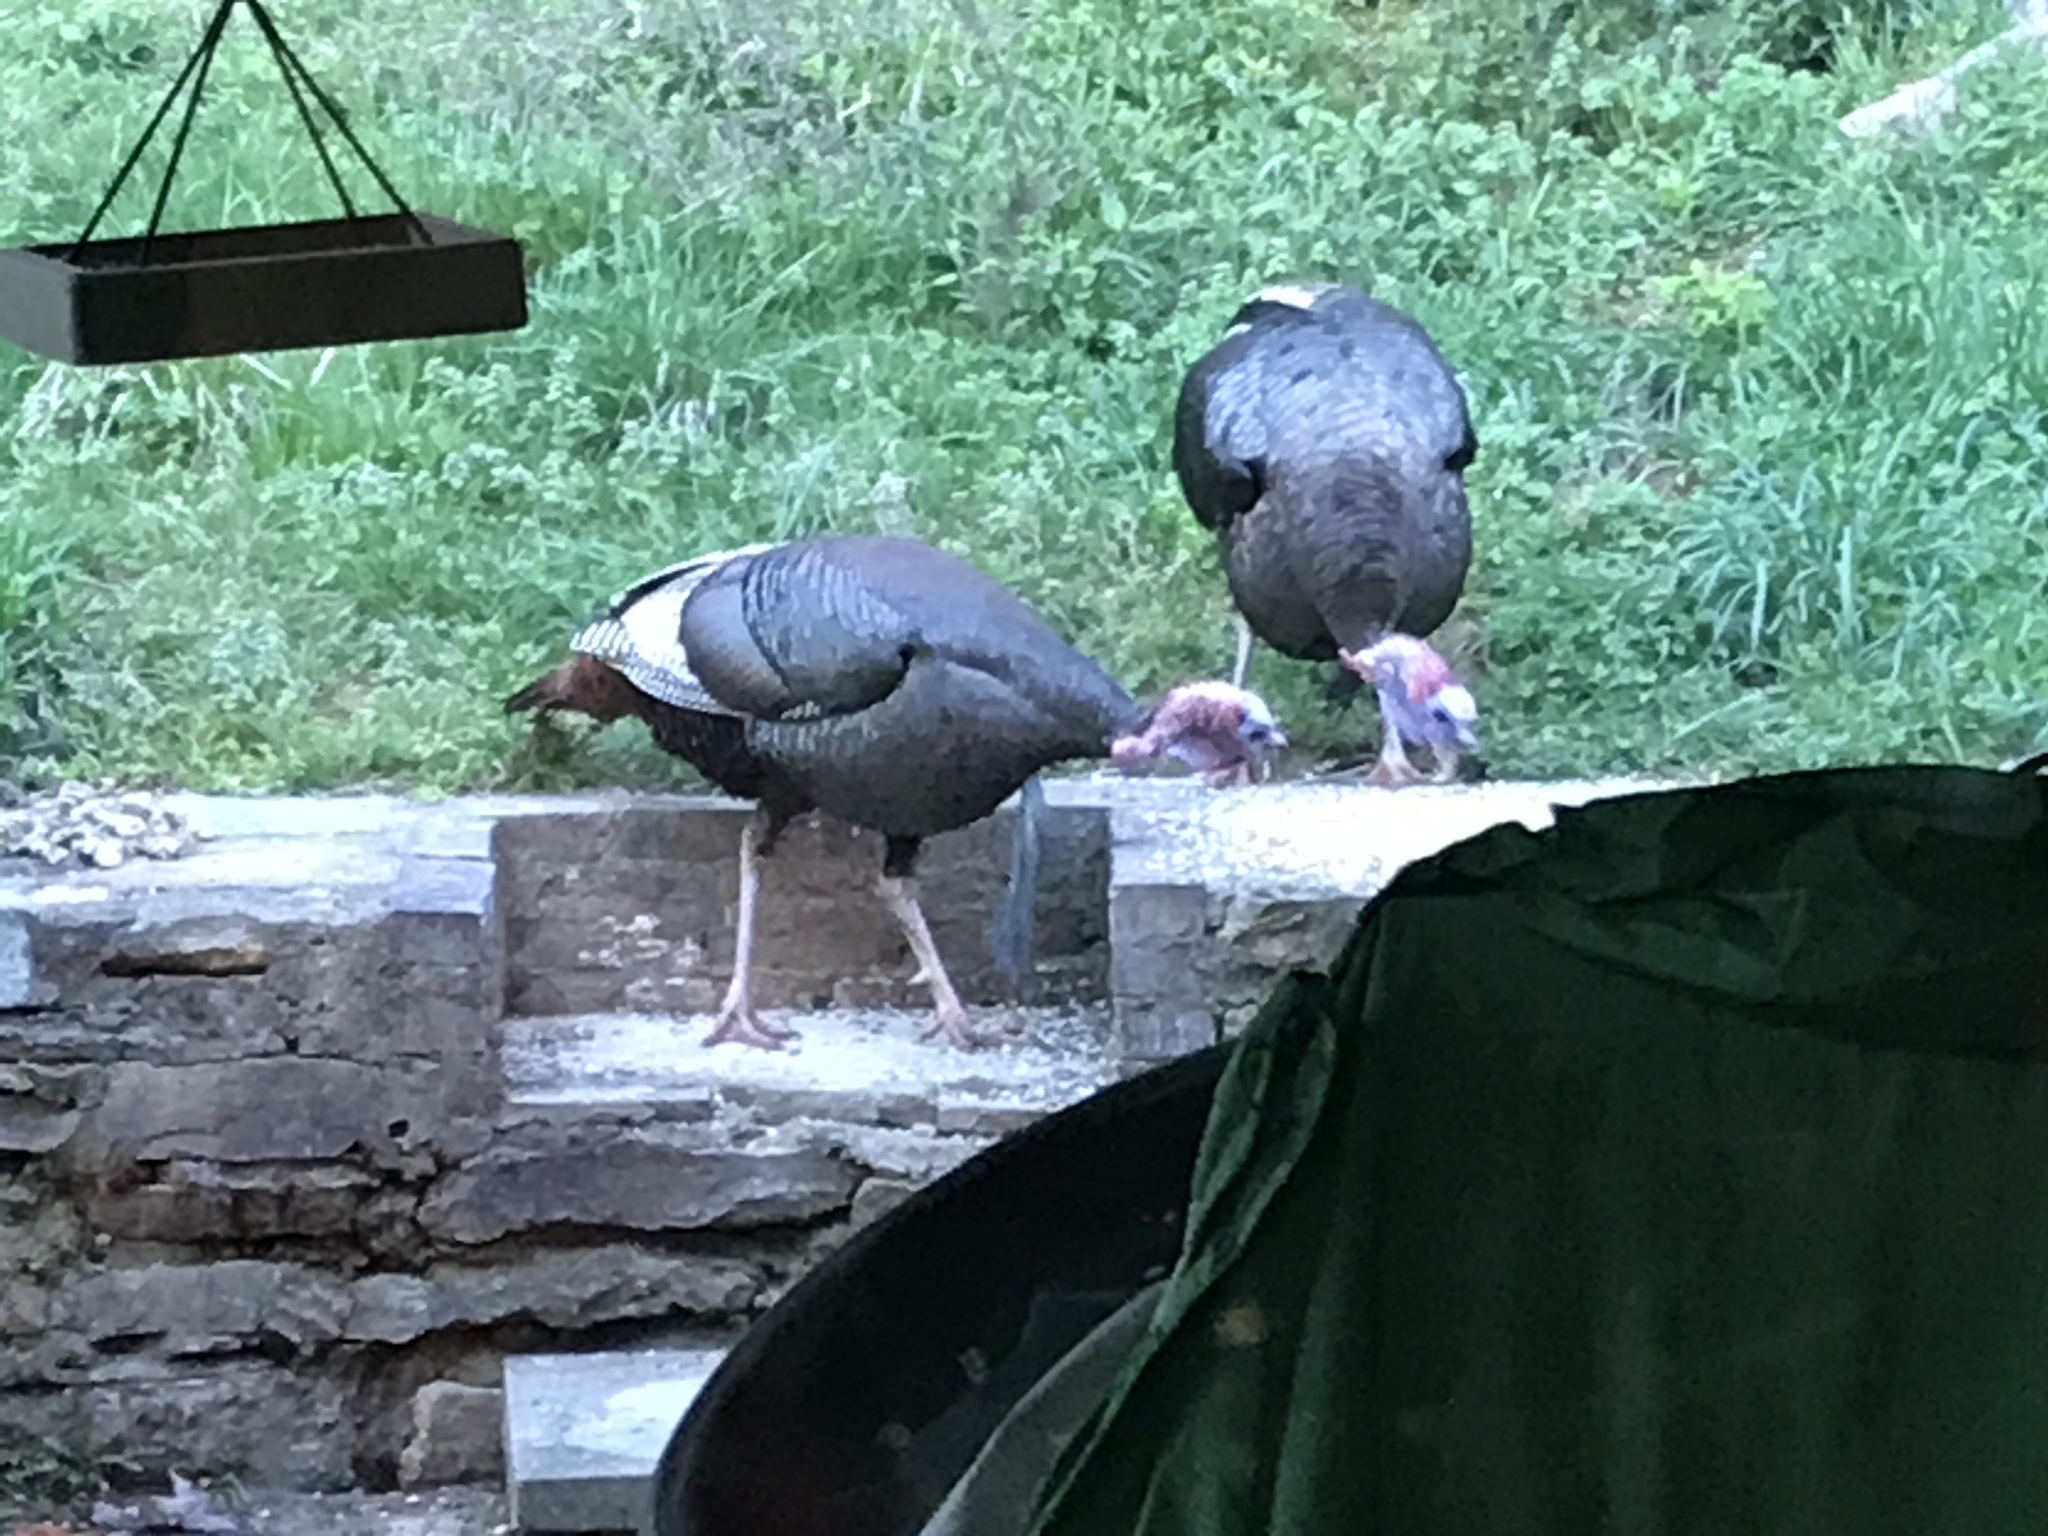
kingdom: Animalia
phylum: Chordata
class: Aves
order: Galliformes
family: Phasianidae
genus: Meleagris
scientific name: Meleagris gallopavo
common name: Wild turkey
